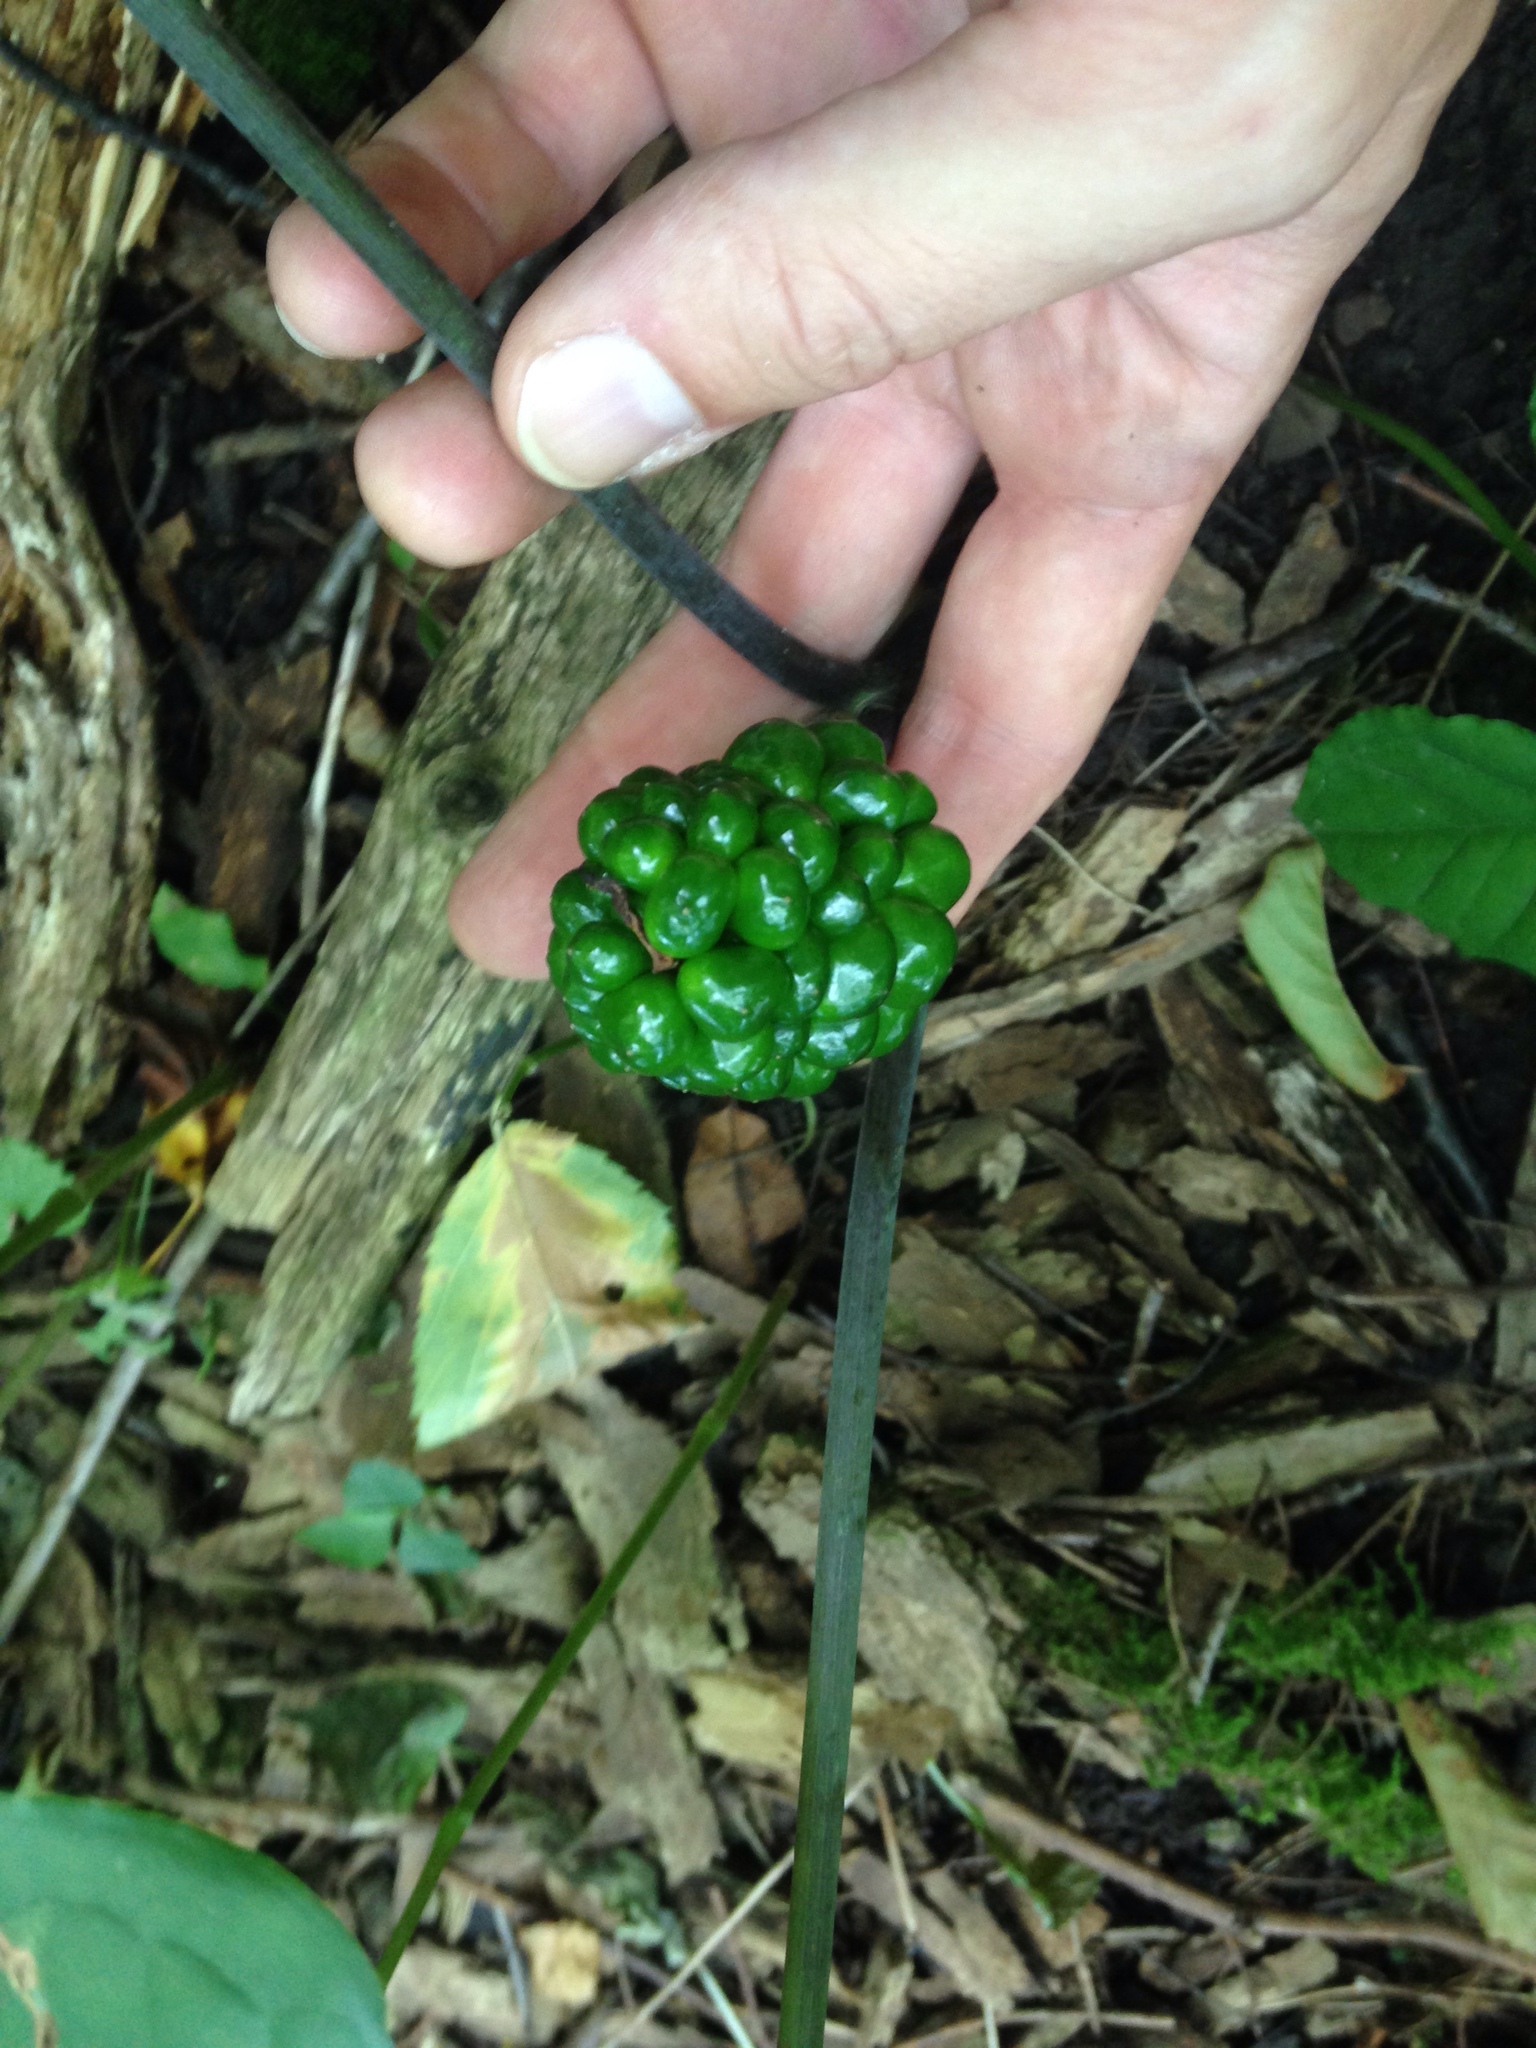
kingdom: Plantae
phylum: Tracheophyta
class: Liliopsida
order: Alismatales
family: Araceae
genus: Arisaema
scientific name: Arisaema triphyllum
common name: Jack-in-the-pulpit
